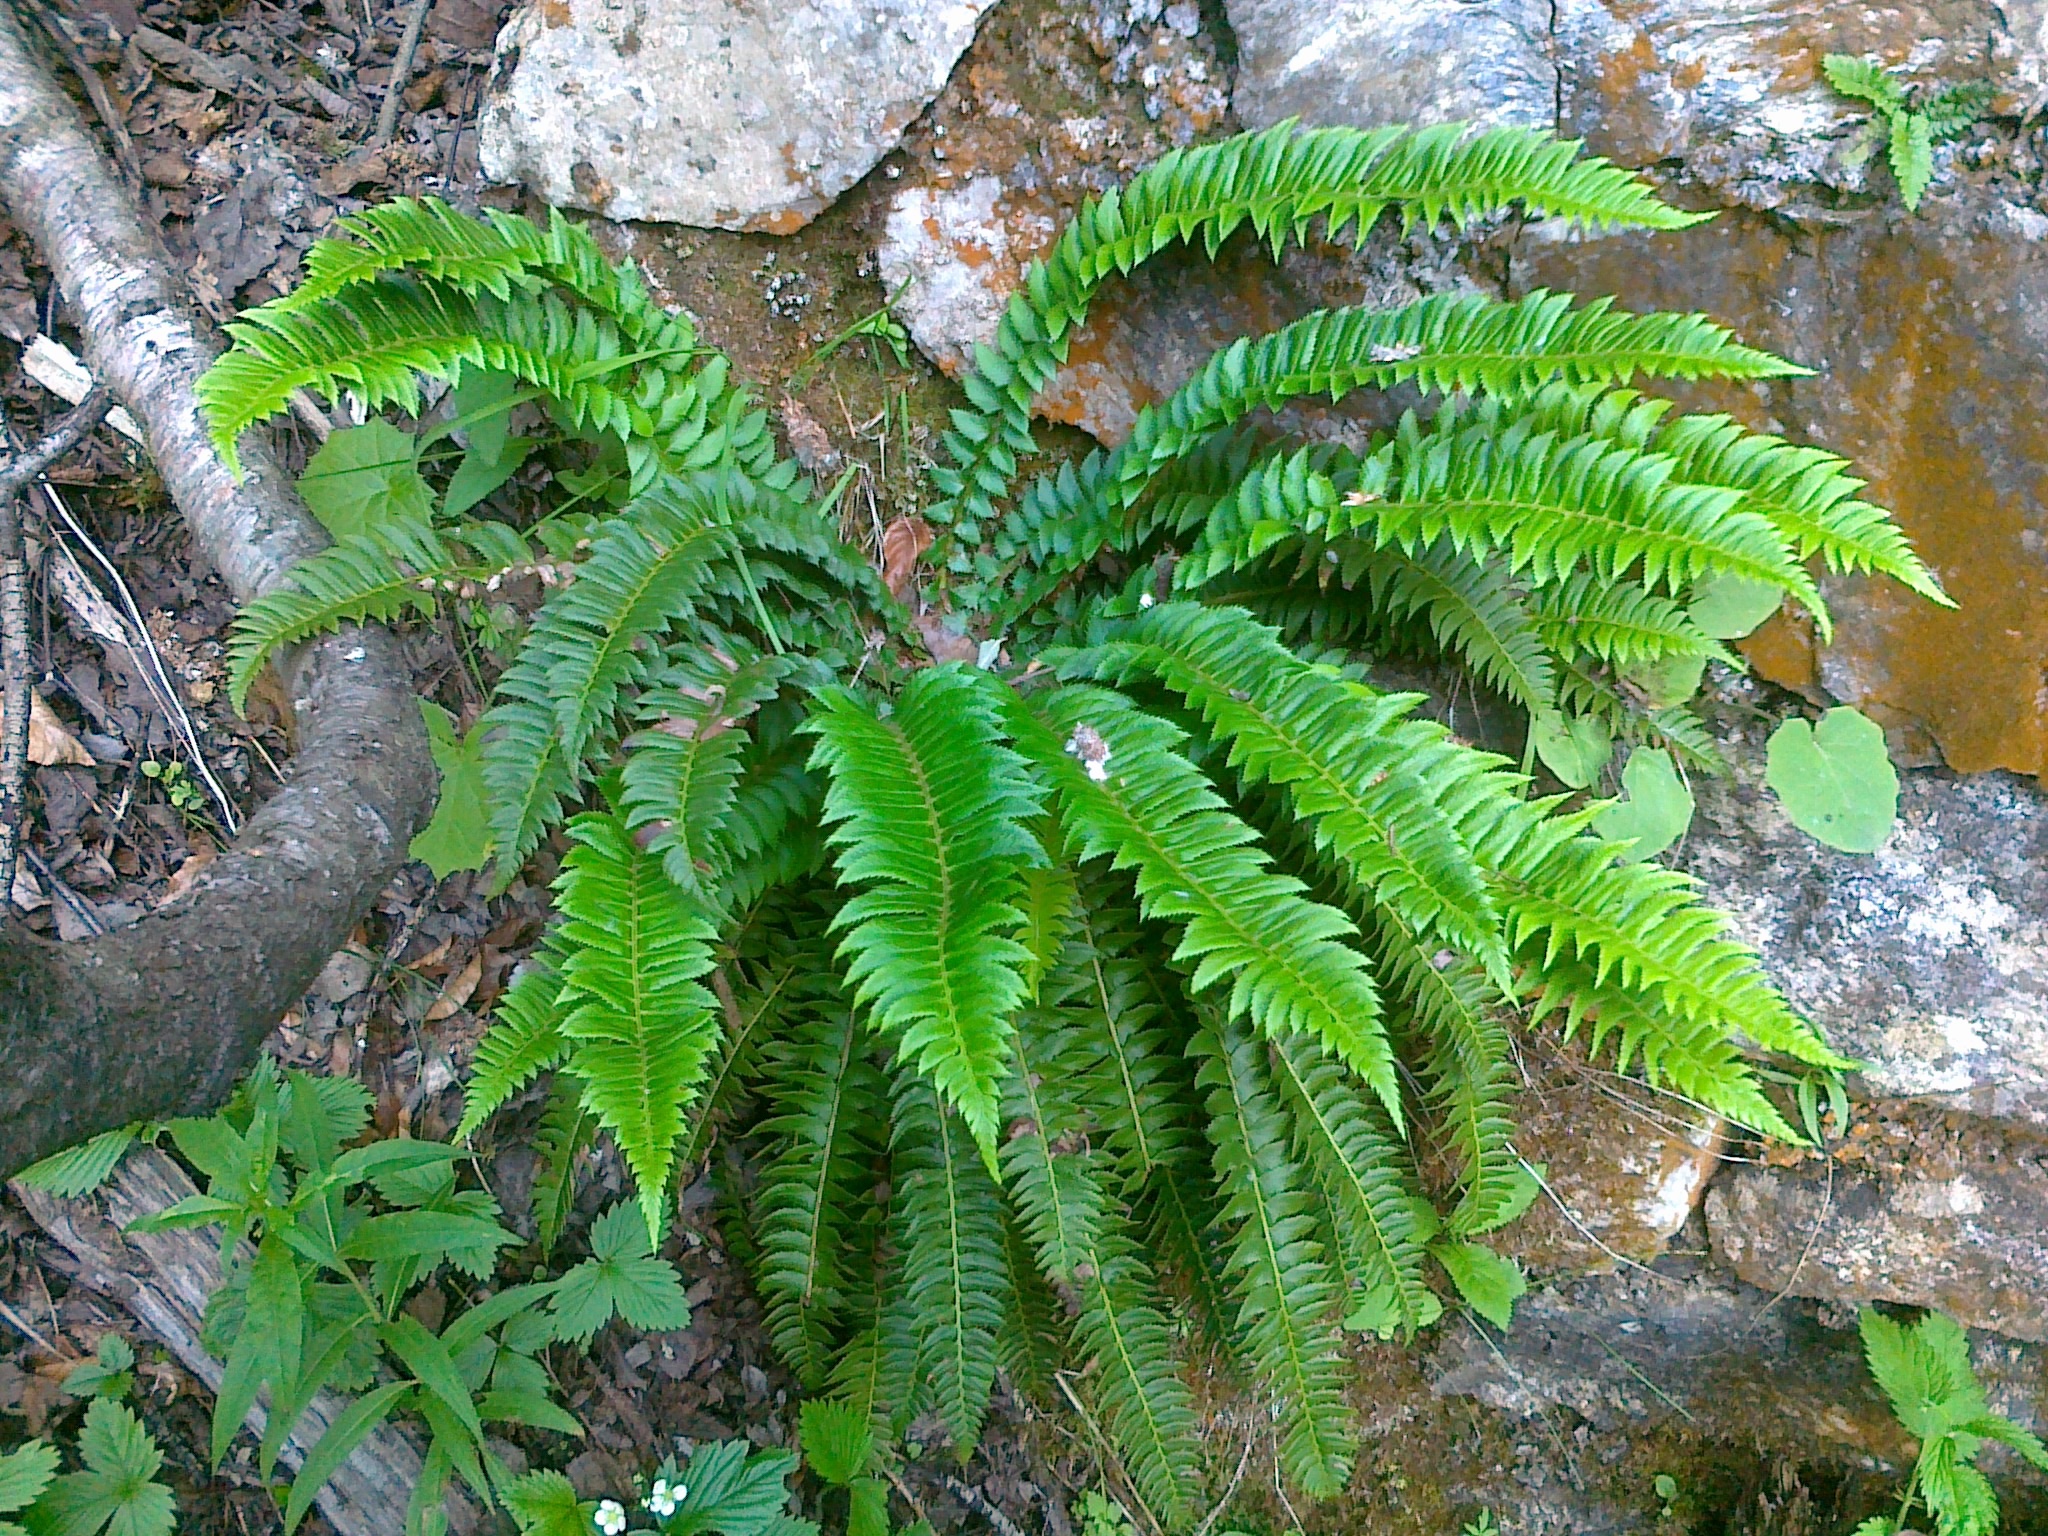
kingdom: Plantae
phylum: Tracheophyta
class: Polypodiopsida
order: Polypodiales
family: Dryopteridaceae
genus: Polystichum
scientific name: Polystichum lonchitis
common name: Holly fern
